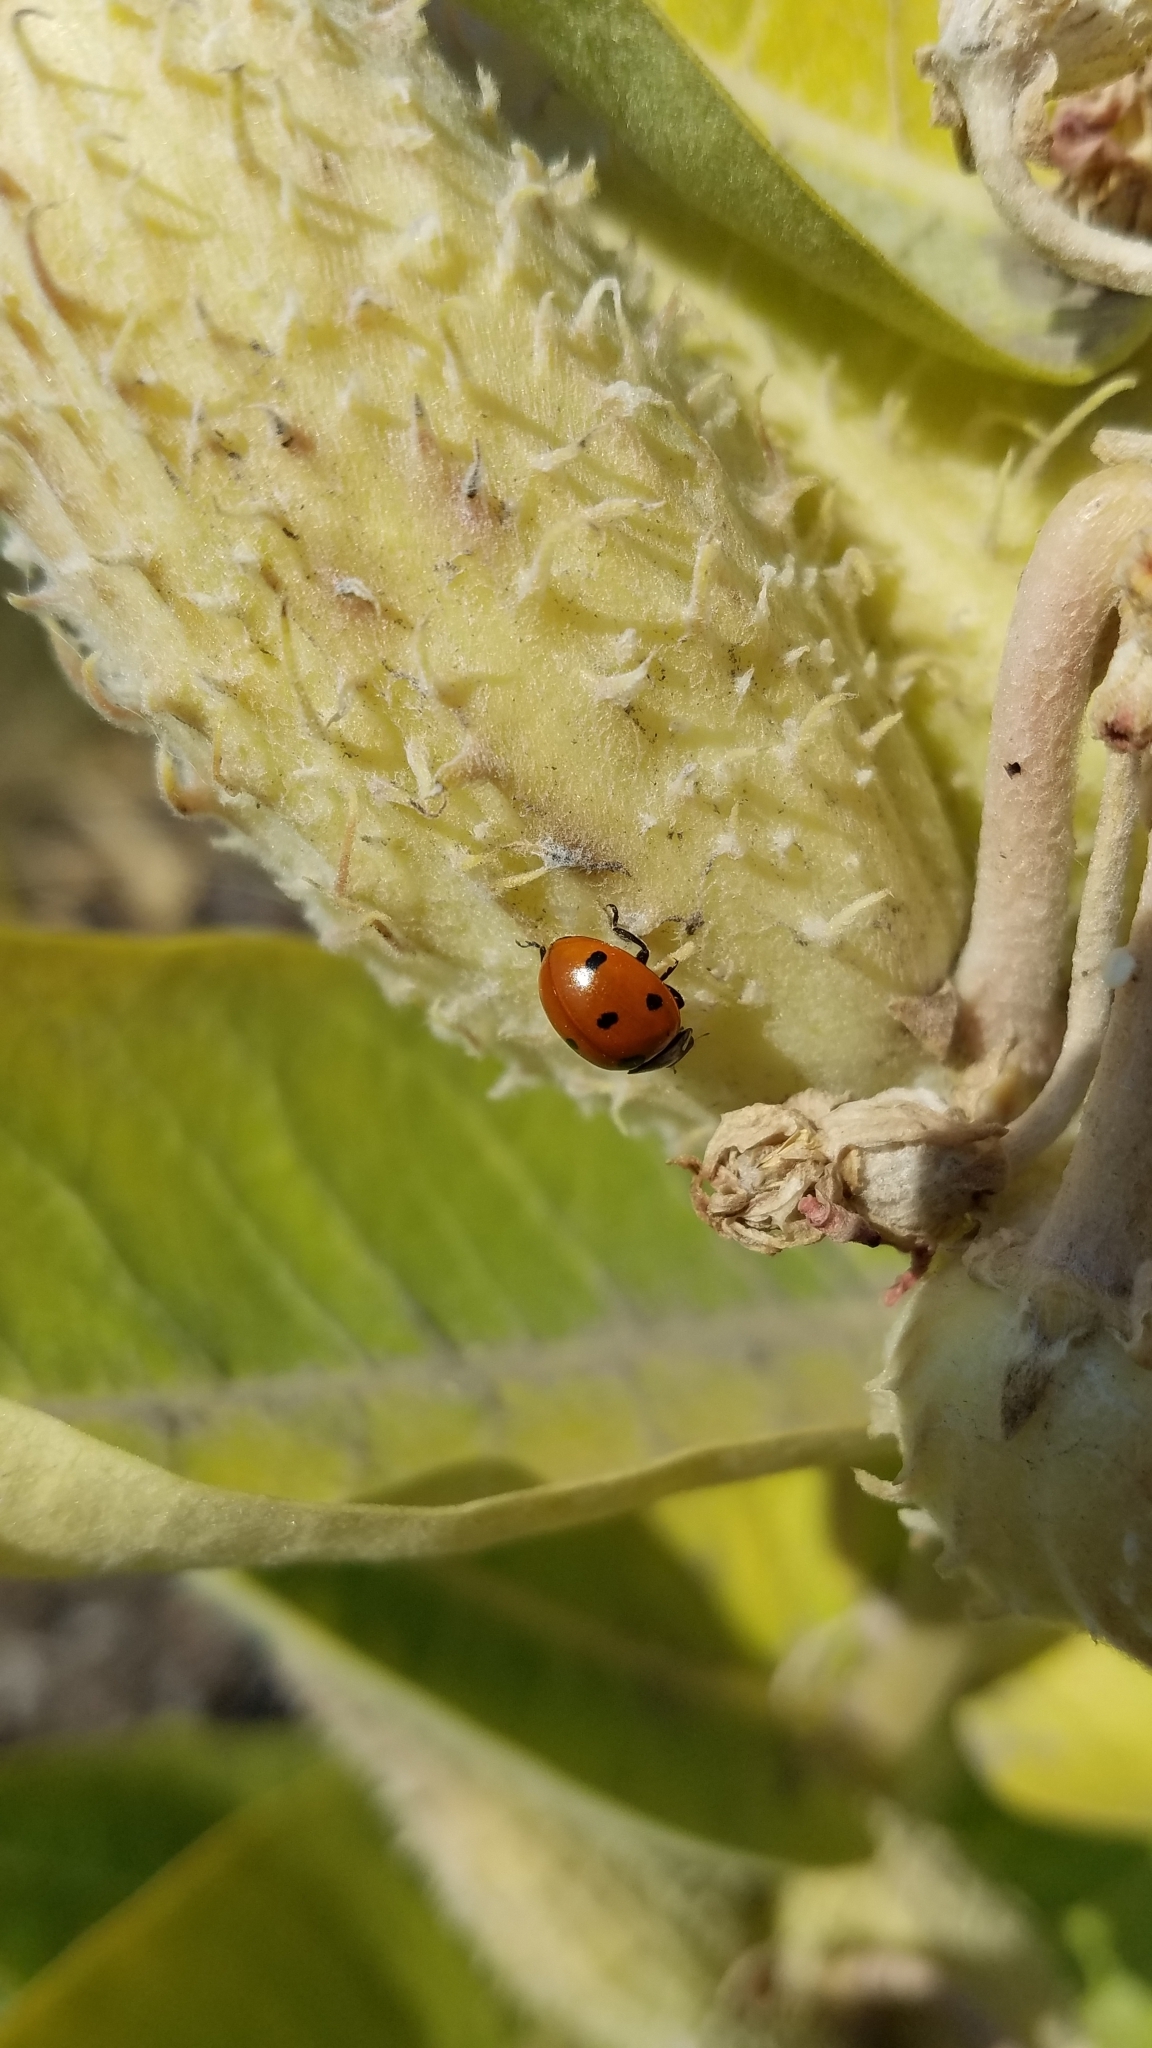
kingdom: Animalia
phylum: Arthropoda
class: Insecta
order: Coleoptera
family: Coccinellidae
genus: Coccinella
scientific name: Coccinella septempunctata
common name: Sevenspotted lady beetle
